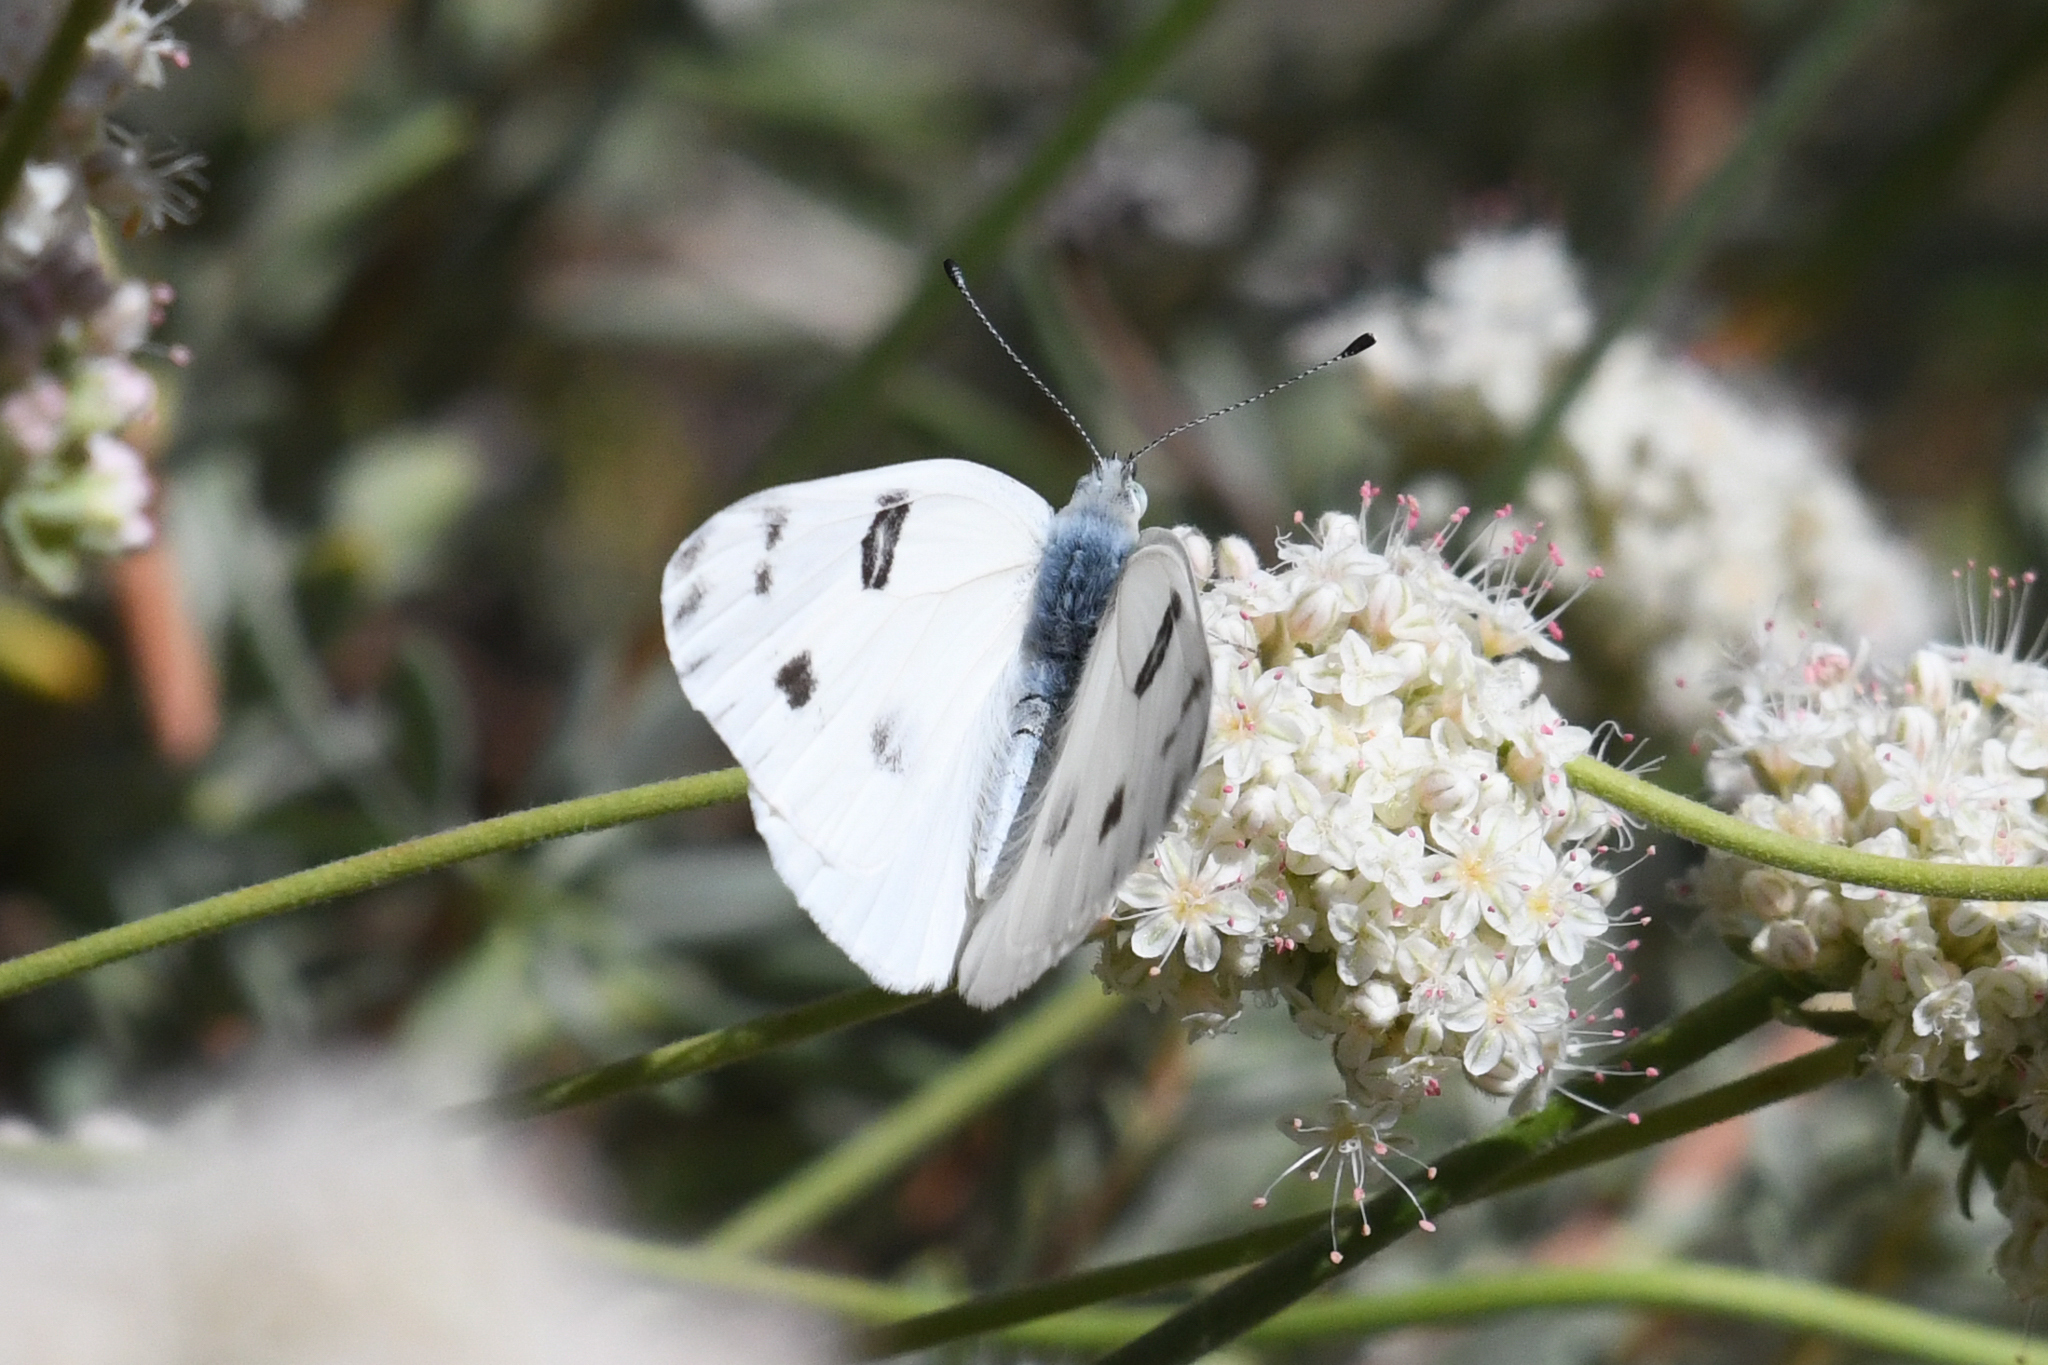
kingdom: Animalia
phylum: Arthropoda
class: Insecta
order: Lepidoptera
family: Pieridae
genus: Pontia
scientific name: Pontia protodice
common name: Checkered white
